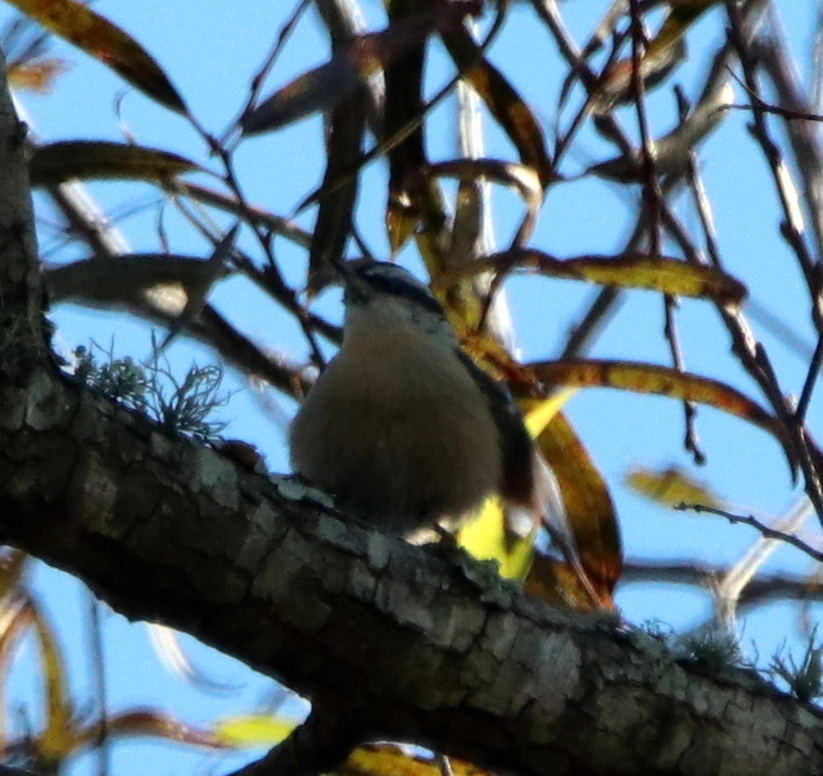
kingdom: Animalia
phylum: Chordata
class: Aves
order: Passeriformes
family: Sittidae
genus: Sitta
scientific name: Sitta canadensis
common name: Red-breasted nuthatch
